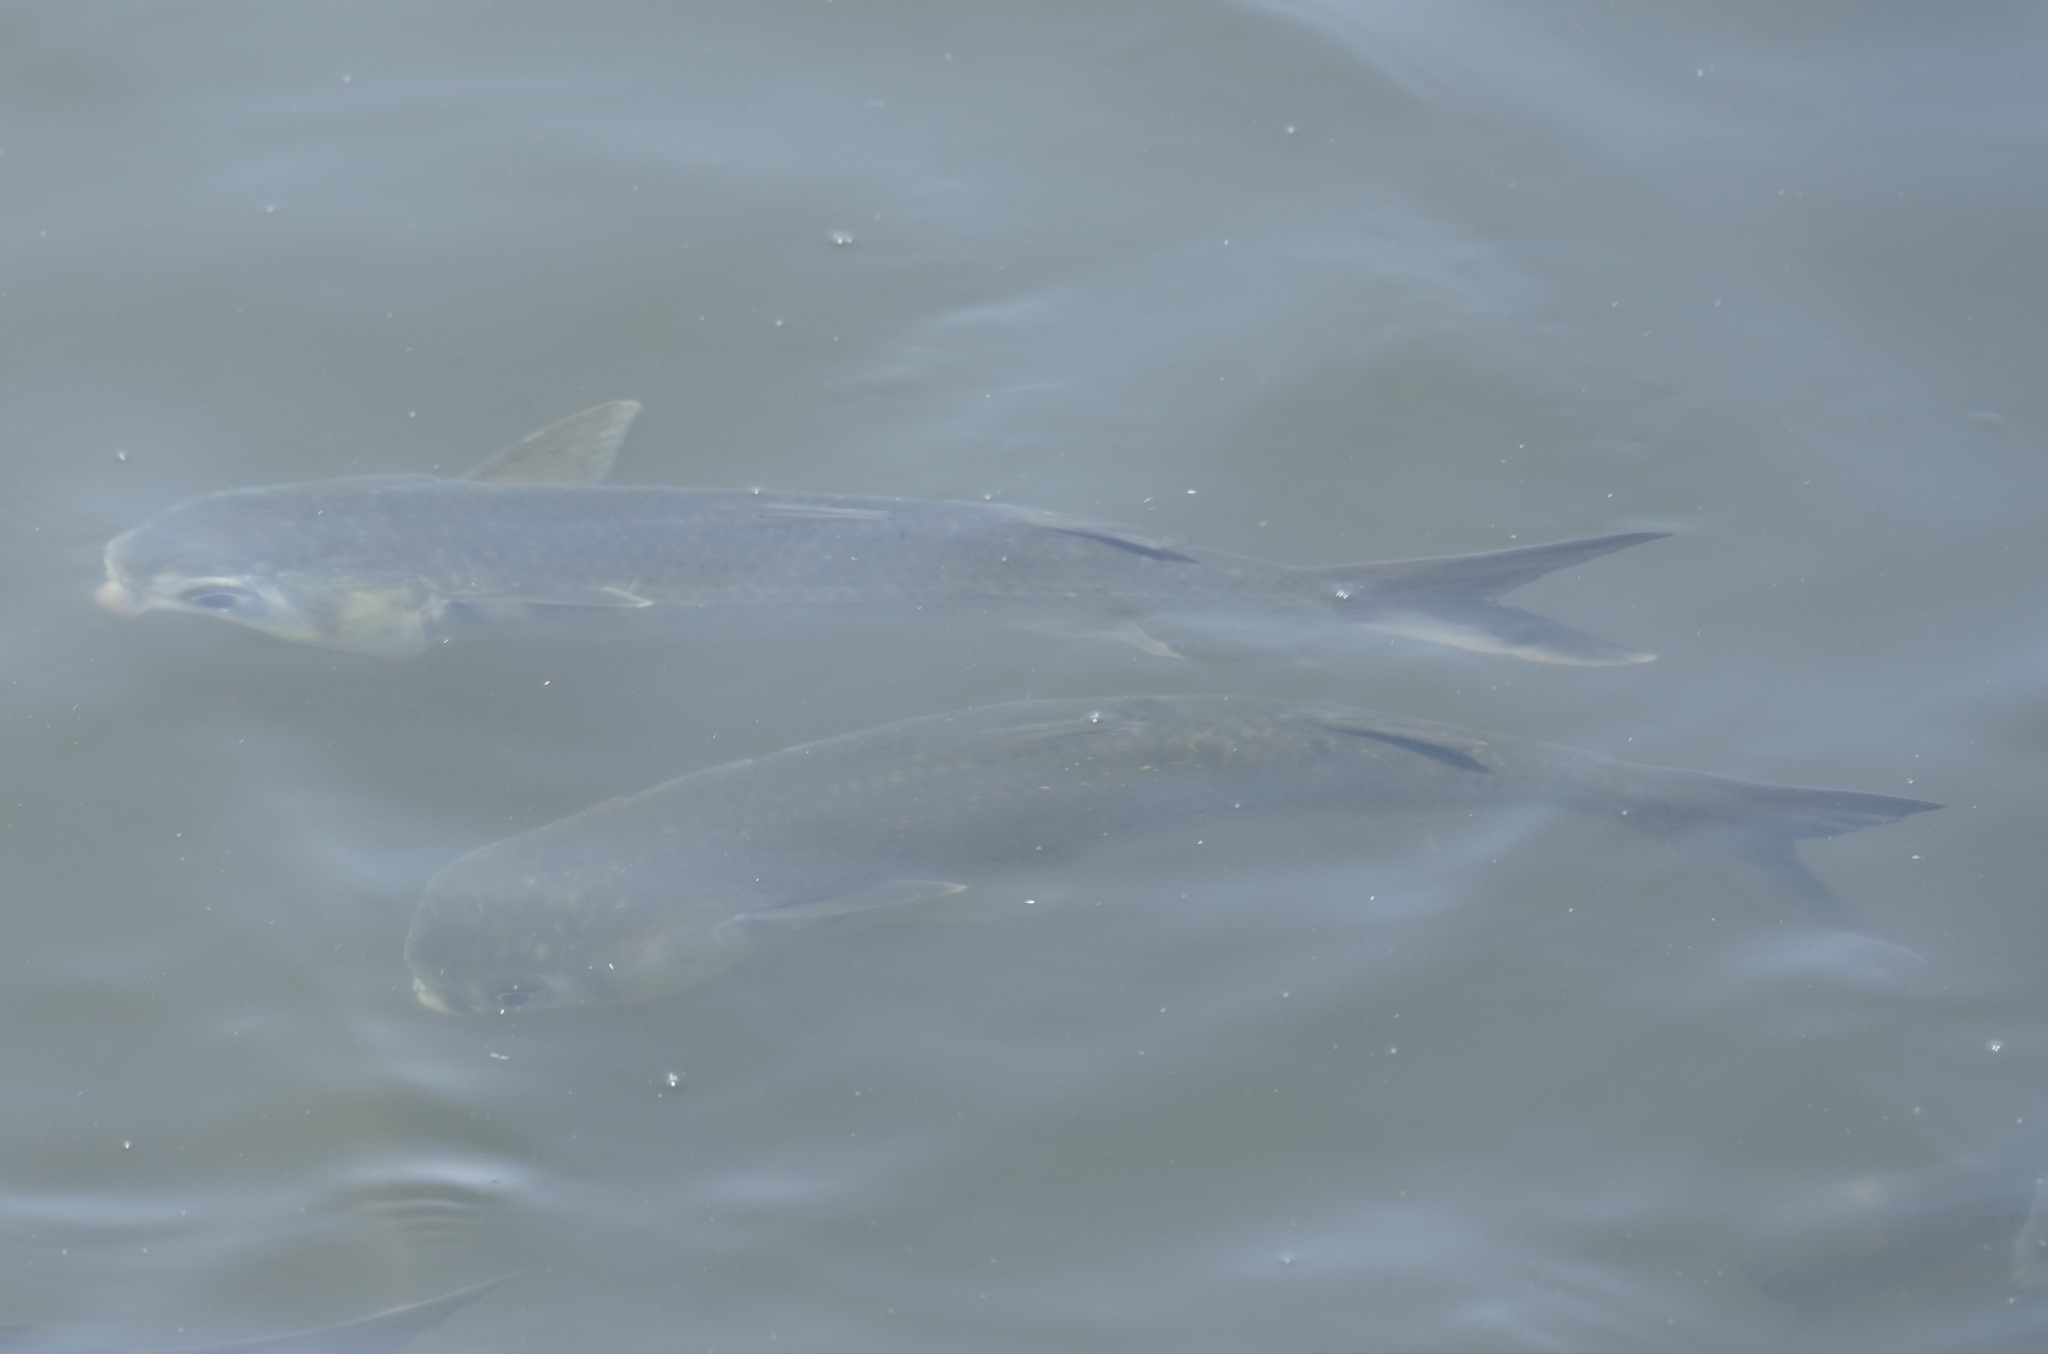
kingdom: Animalia
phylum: Chordata
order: Mugiliformes
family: Mugilidae
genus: Mugil
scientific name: Mugil cephalus
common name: Grey mullet
